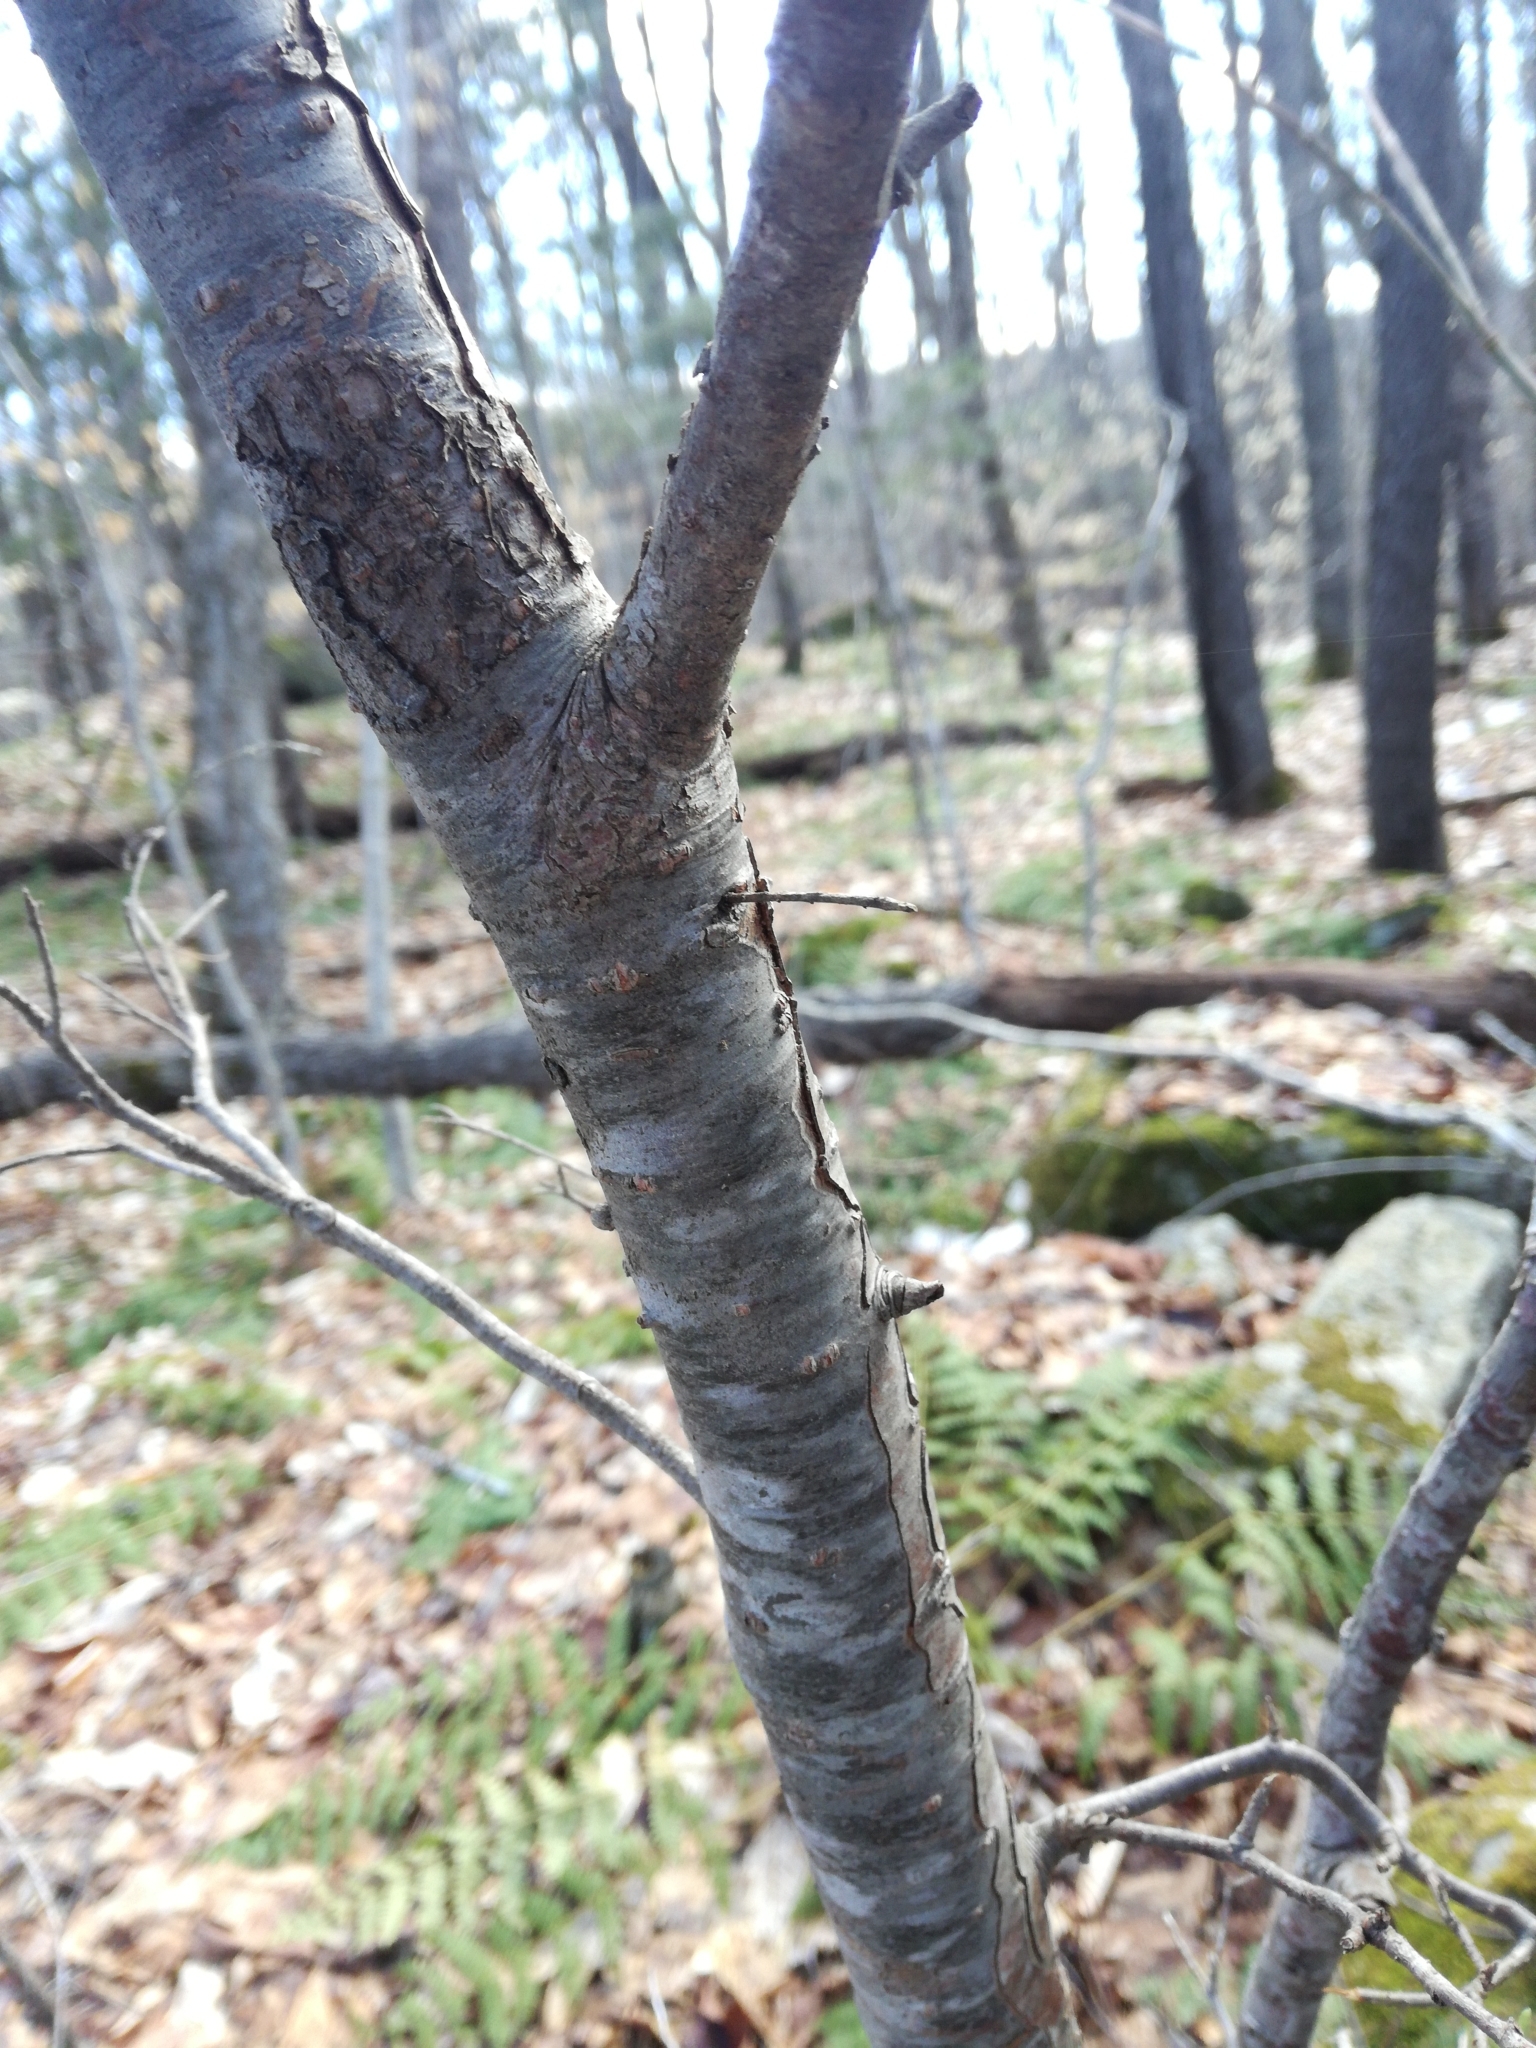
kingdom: Plantae
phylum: Tracheophyta
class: Pinopsida
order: Pinales
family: Pinaceae
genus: Tsuga
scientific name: Tsuga canadensis
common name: Eastern hemlock
